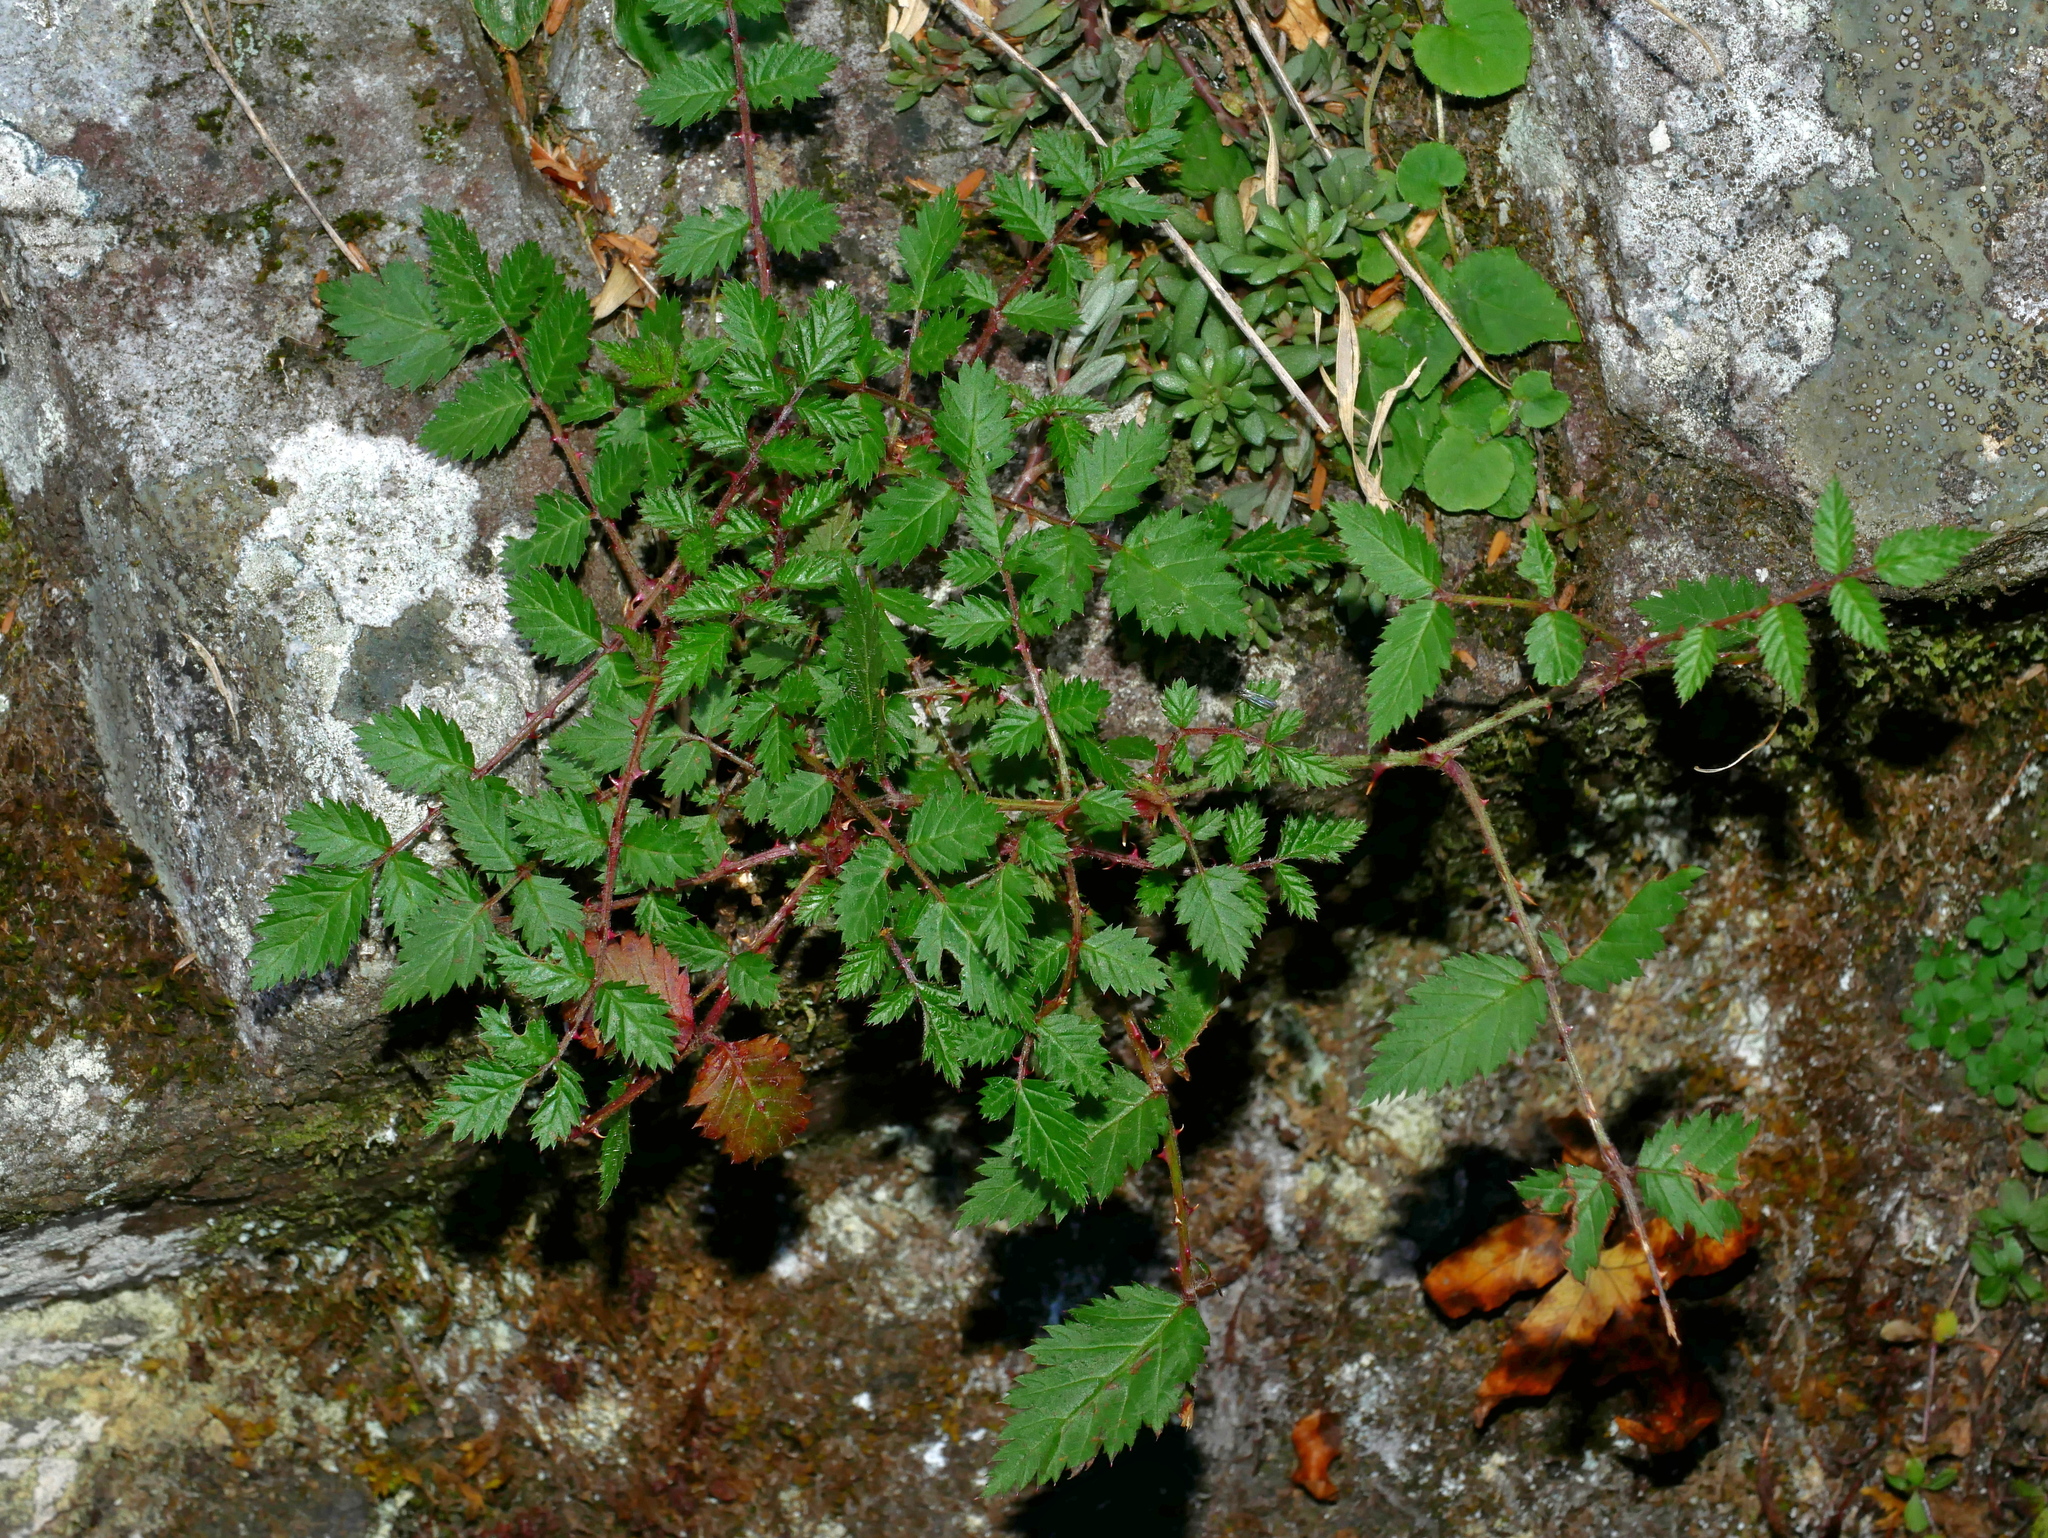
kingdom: Plantae
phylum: Tracheophyta
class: Magnoliopsida
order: Rosales
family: Rosaceae
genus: Rubus
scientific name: Rubus pungens
